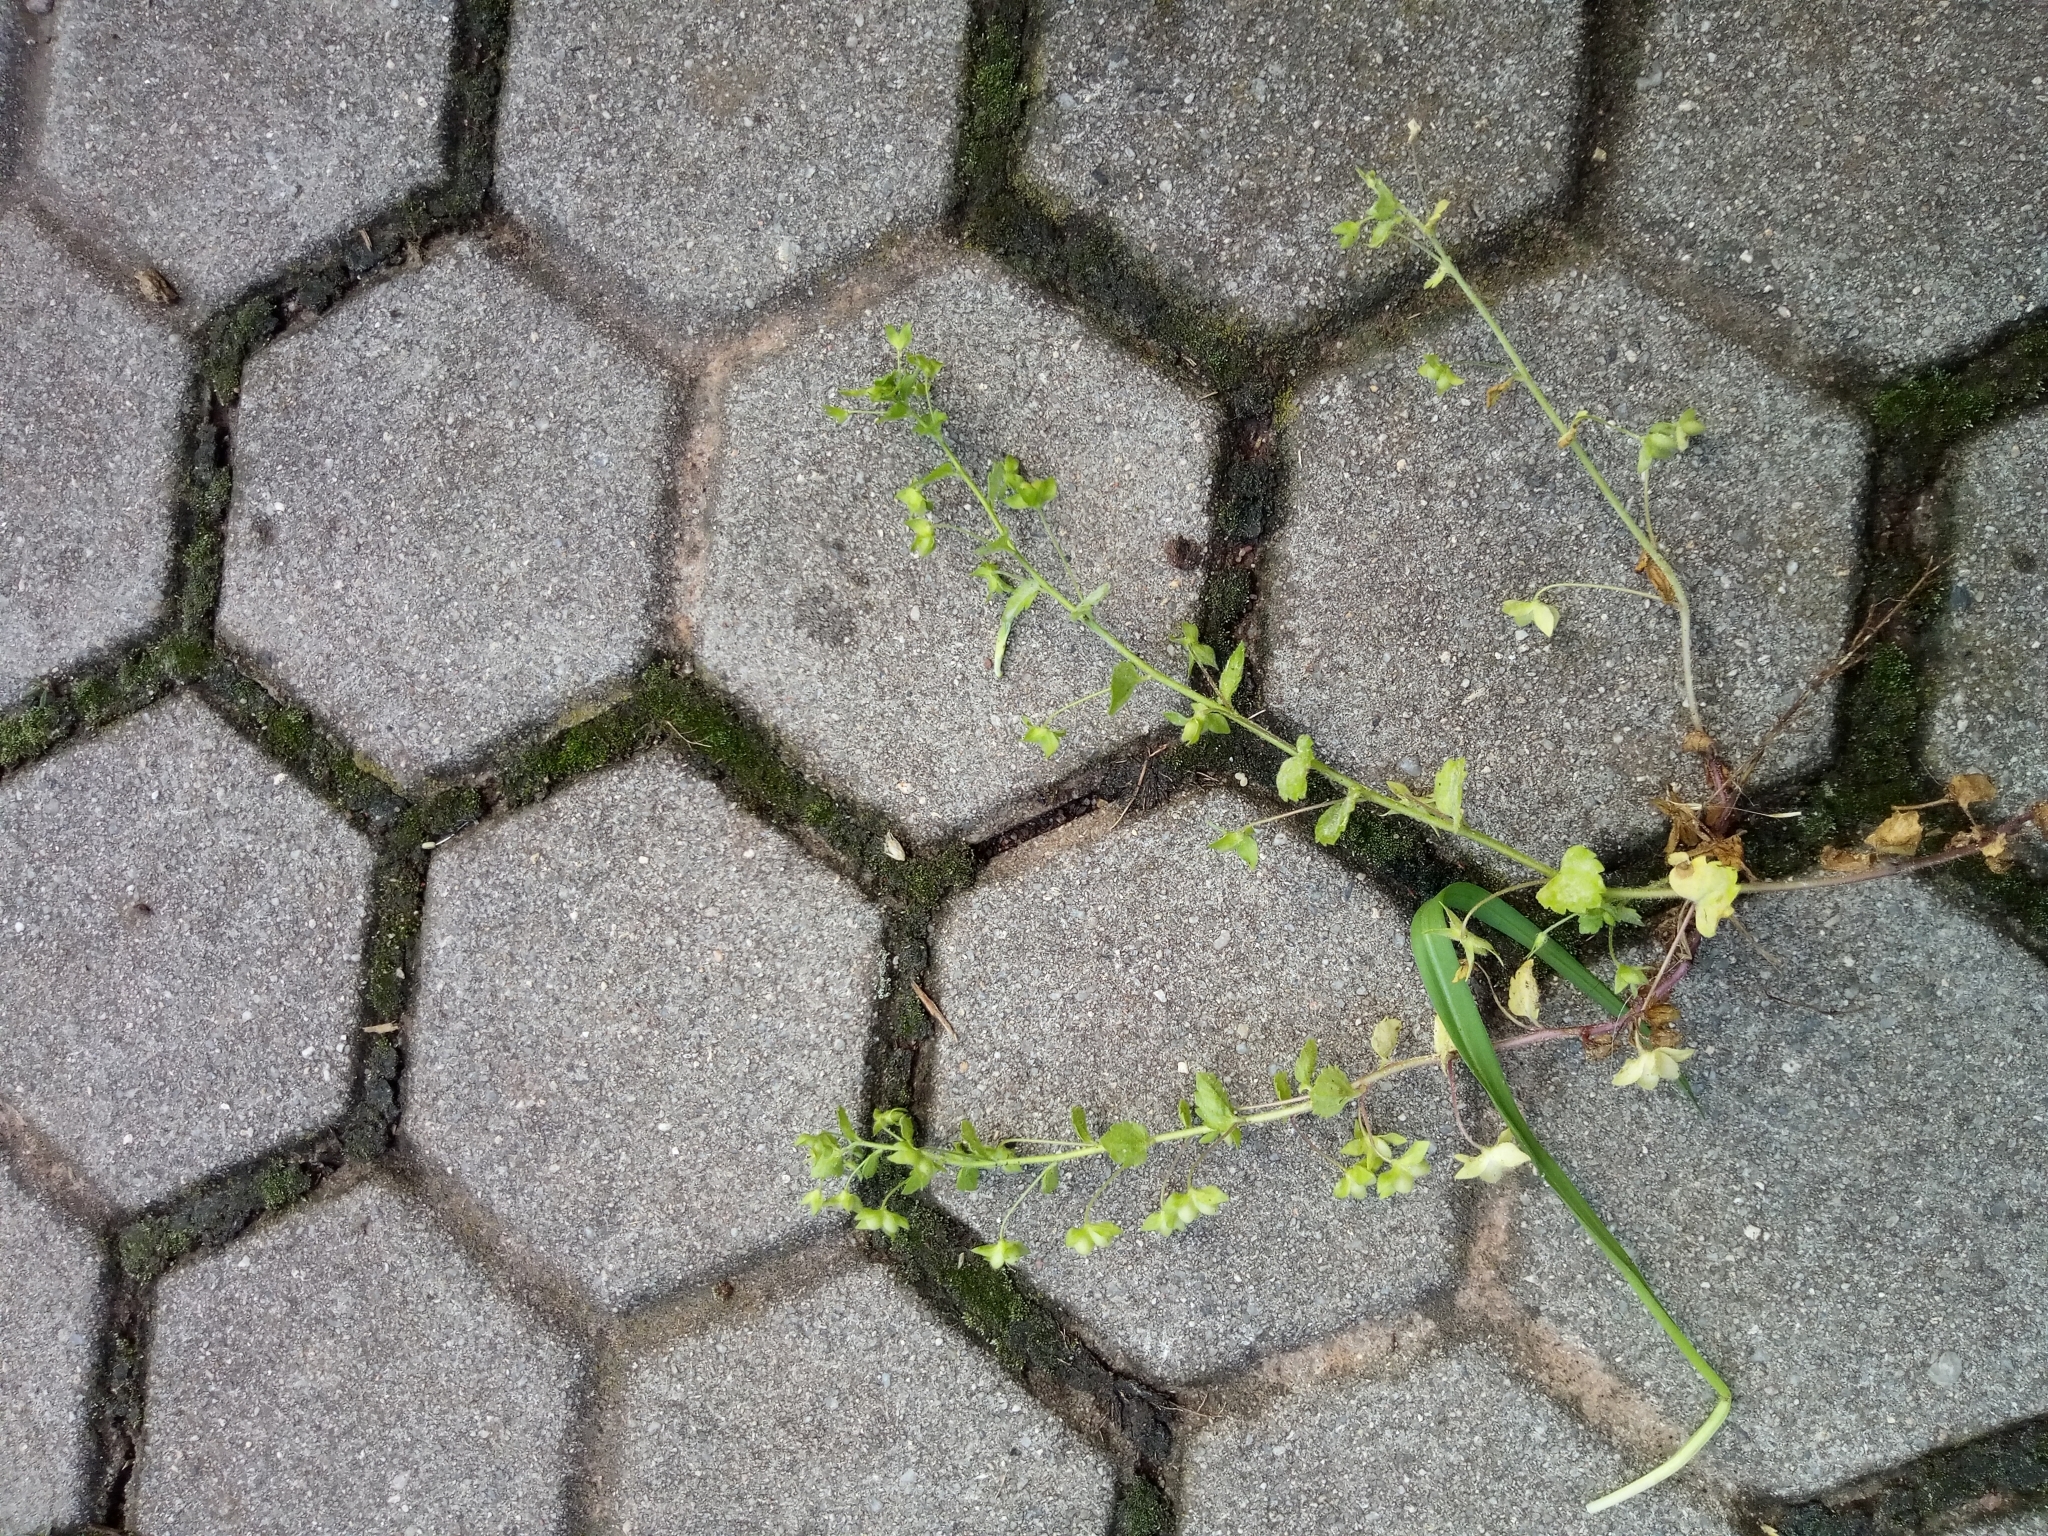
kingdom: Plantae
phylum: Tracheophyta
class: Magnoliopsida
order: Lamiales
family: Plantaginaceae
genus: Veronica
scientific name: Veronica persica
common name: Common field-speedwell
